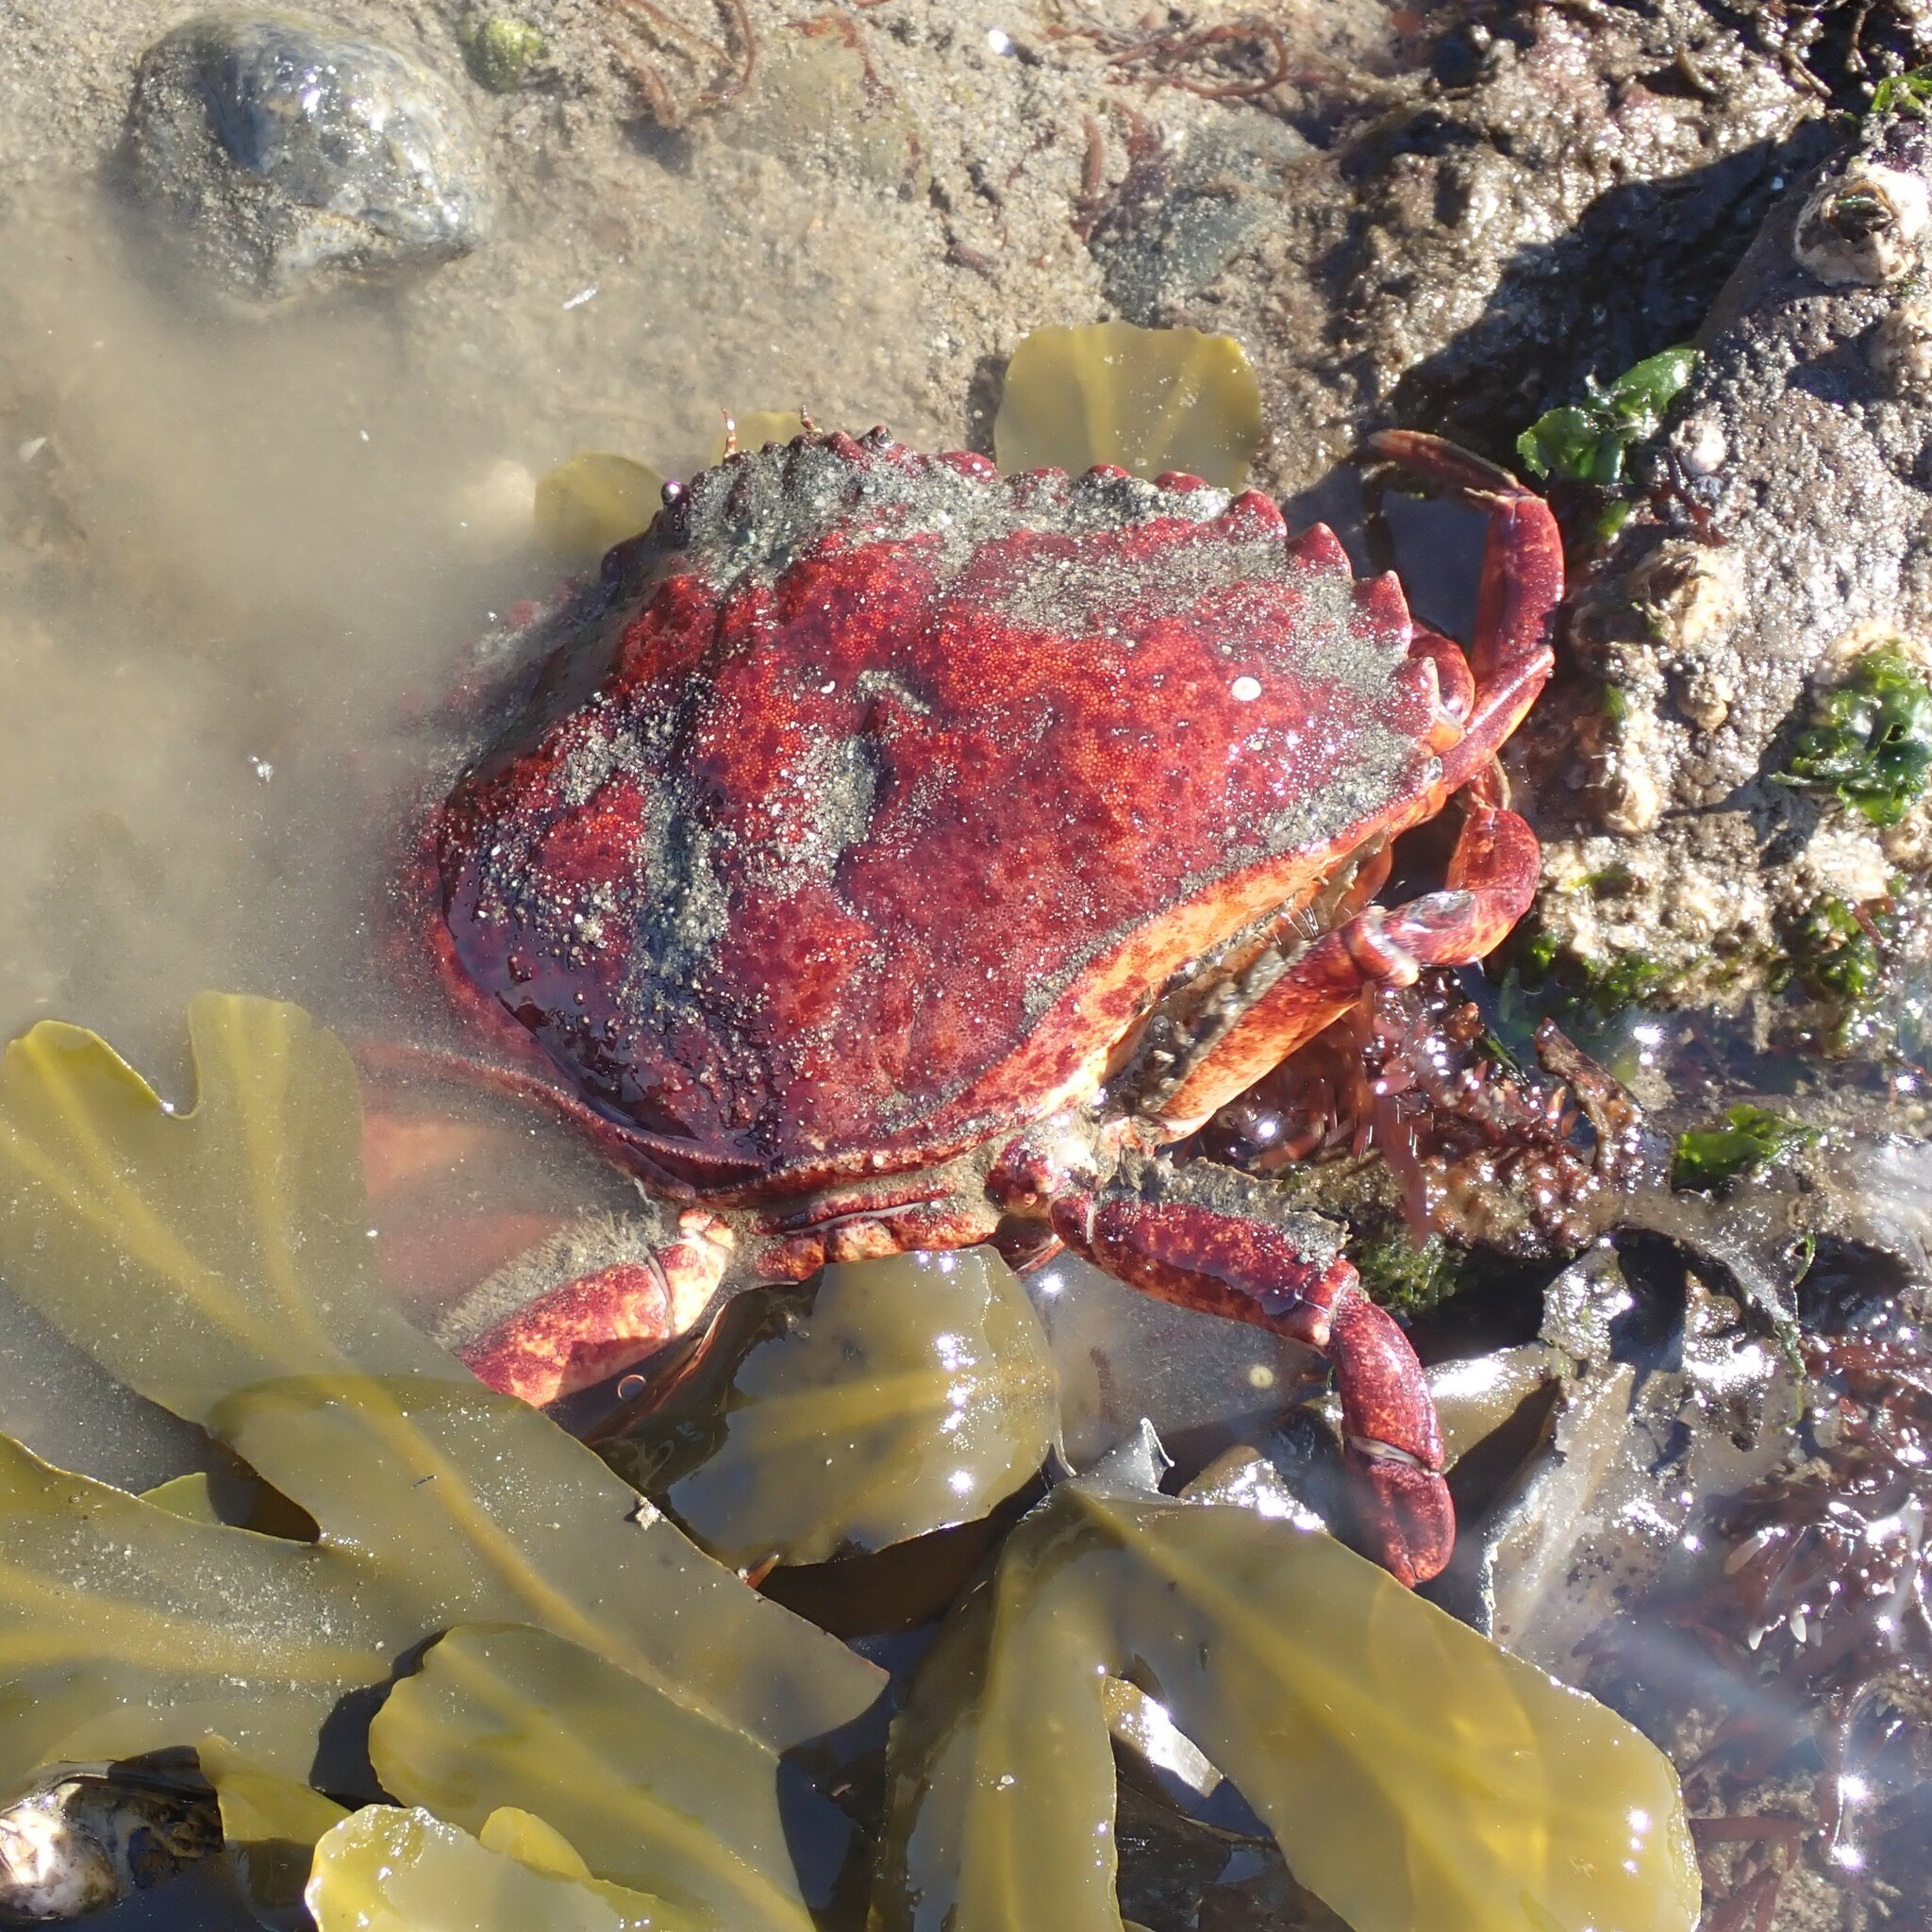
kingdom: Animalia
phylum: Arthropoda
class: Malacostraca
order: Decapoda
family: Cancridae
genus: Cancer
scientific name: Cancer productus
